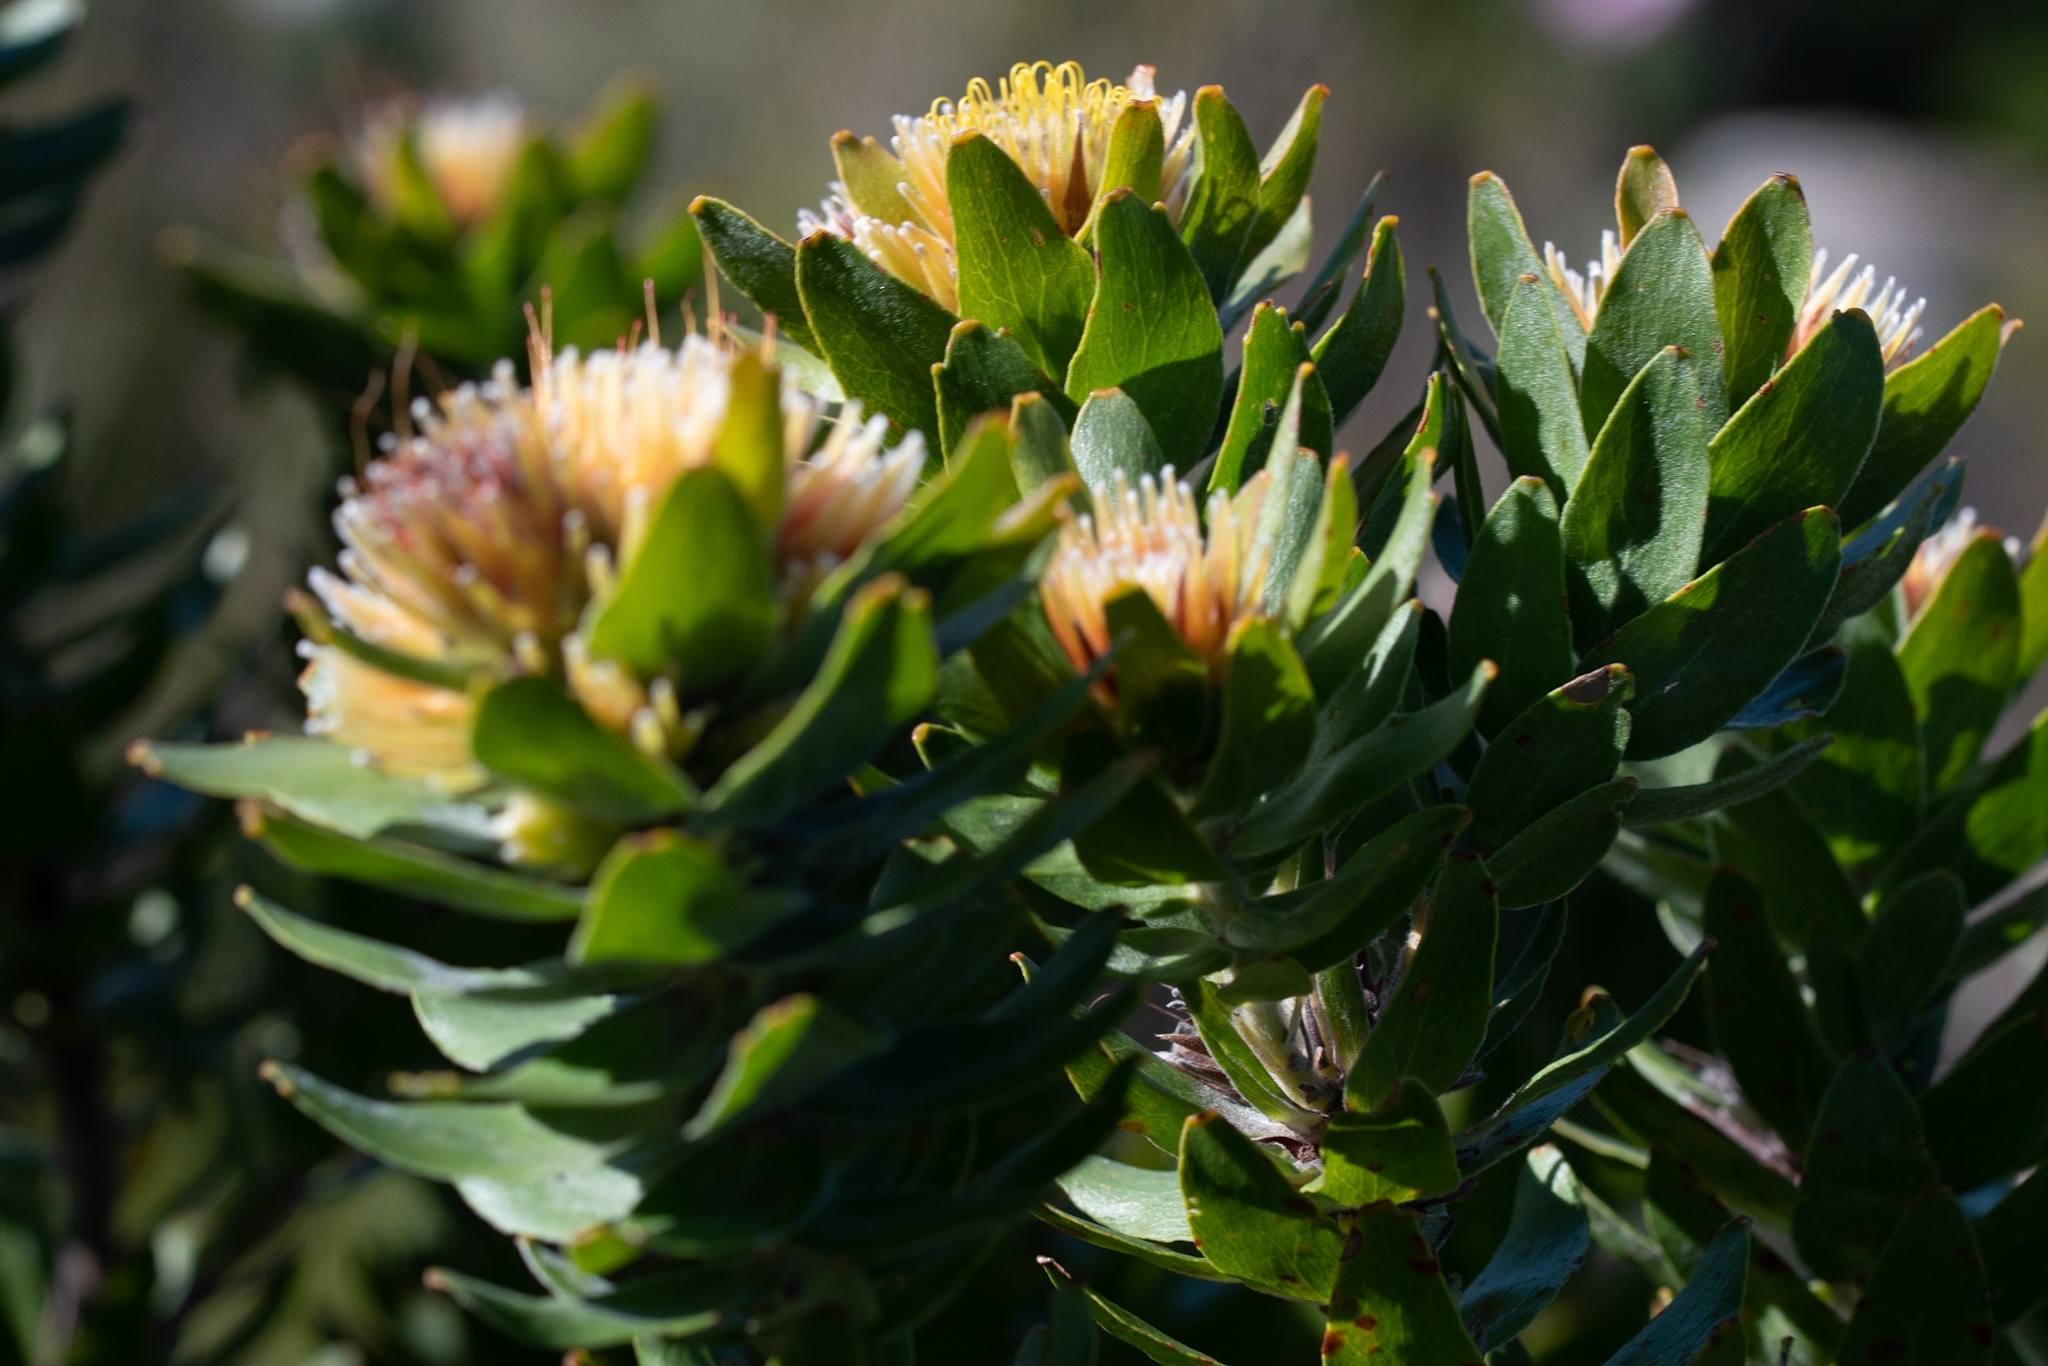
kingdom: Plantae
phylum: Tracheophyta
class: Magnoliopsida
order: Proteales
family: Proteaceae
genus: Leucospermum
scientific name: Leucospermum oleifolium
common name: Matches
